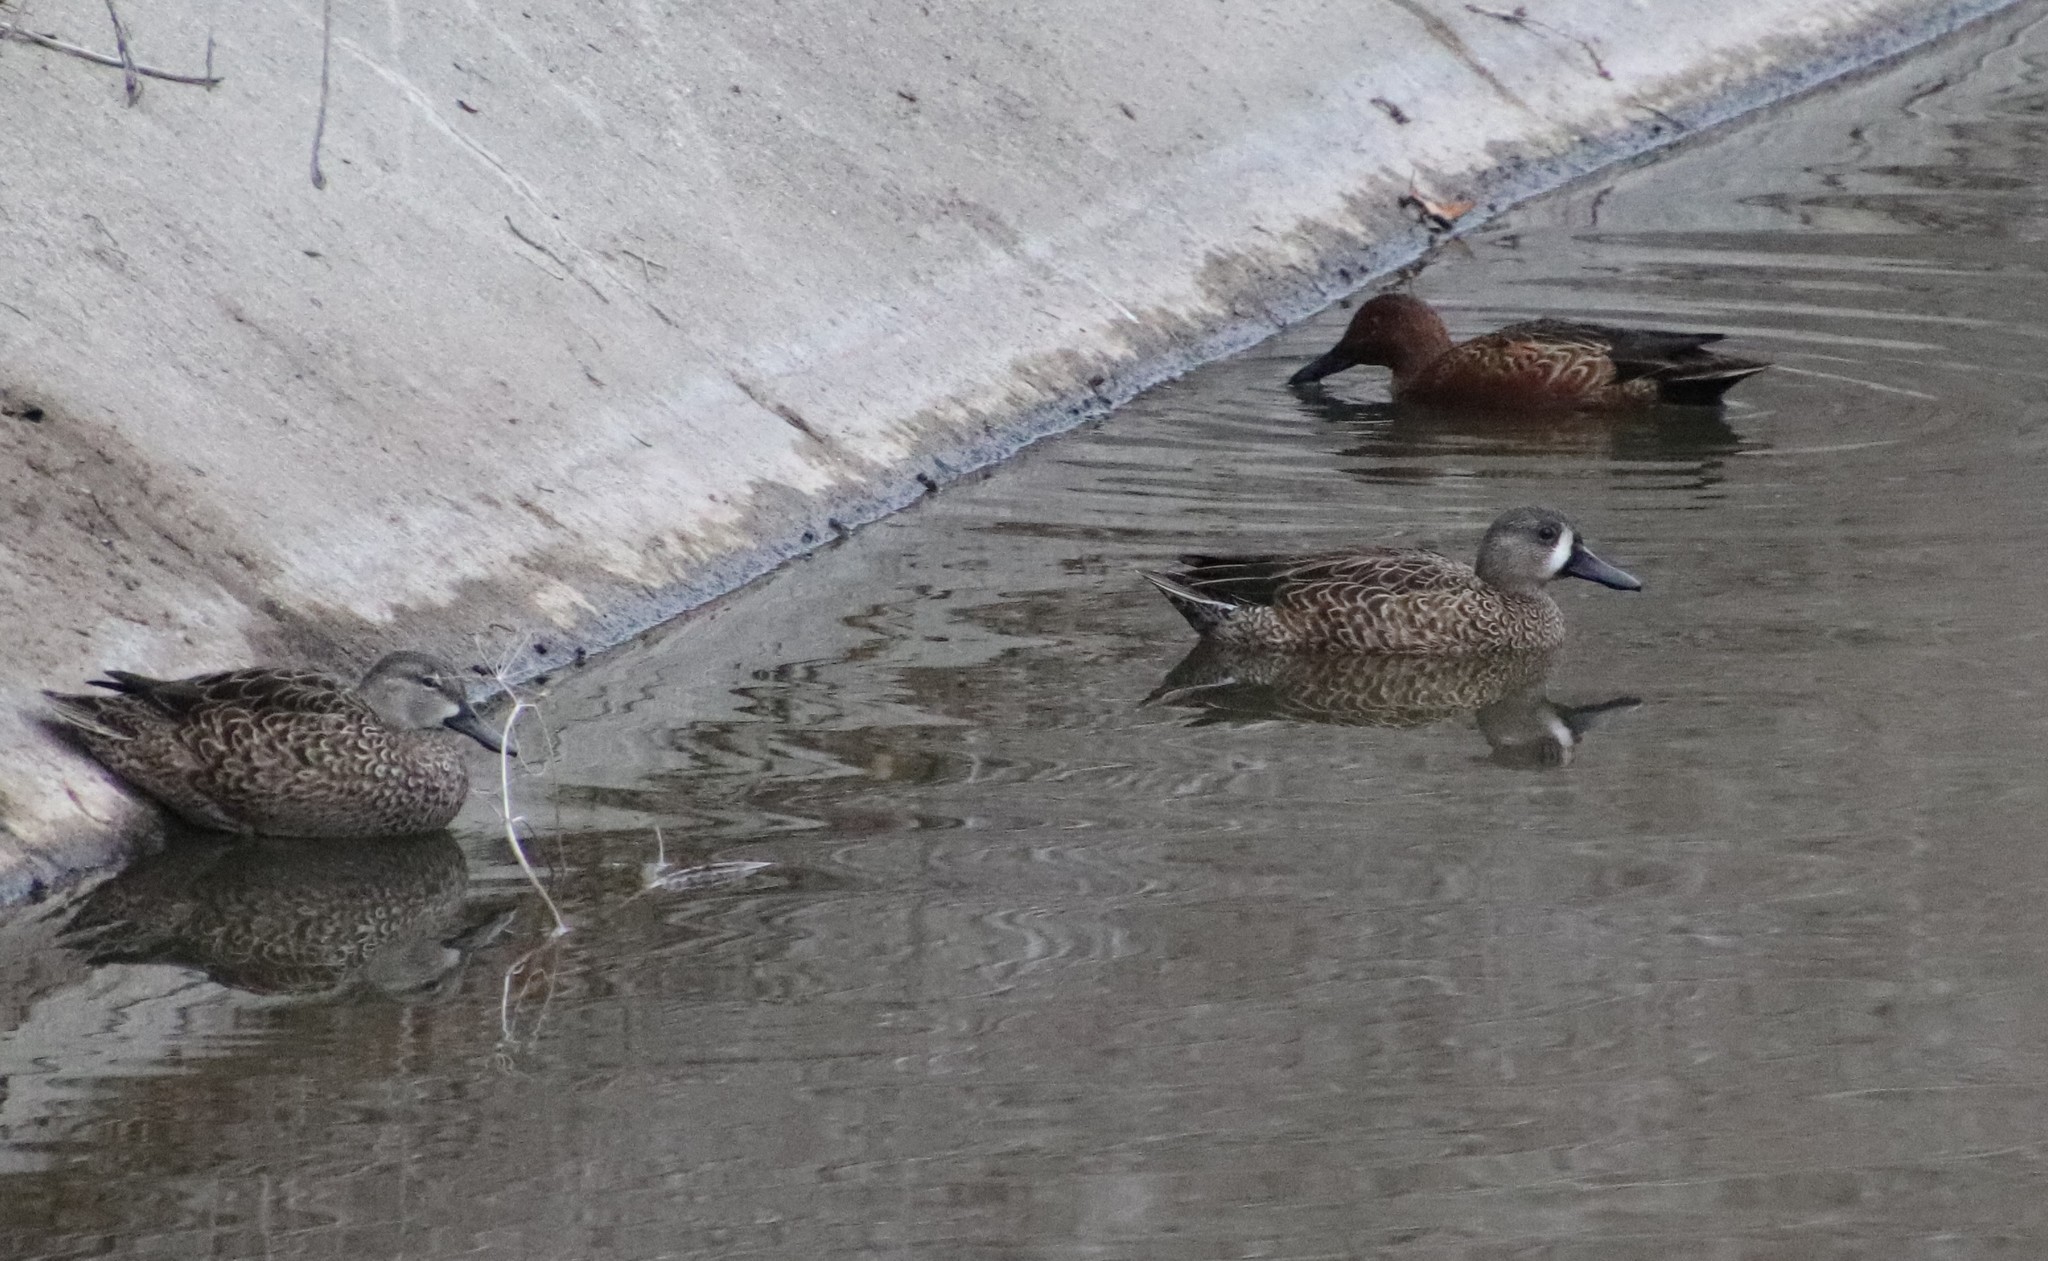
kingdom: Animalia
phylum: Chordata
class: Aves
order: Anseriformes
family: Anatidae
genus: Spatula
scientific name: Spatula discors
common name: Blue-winged teal
